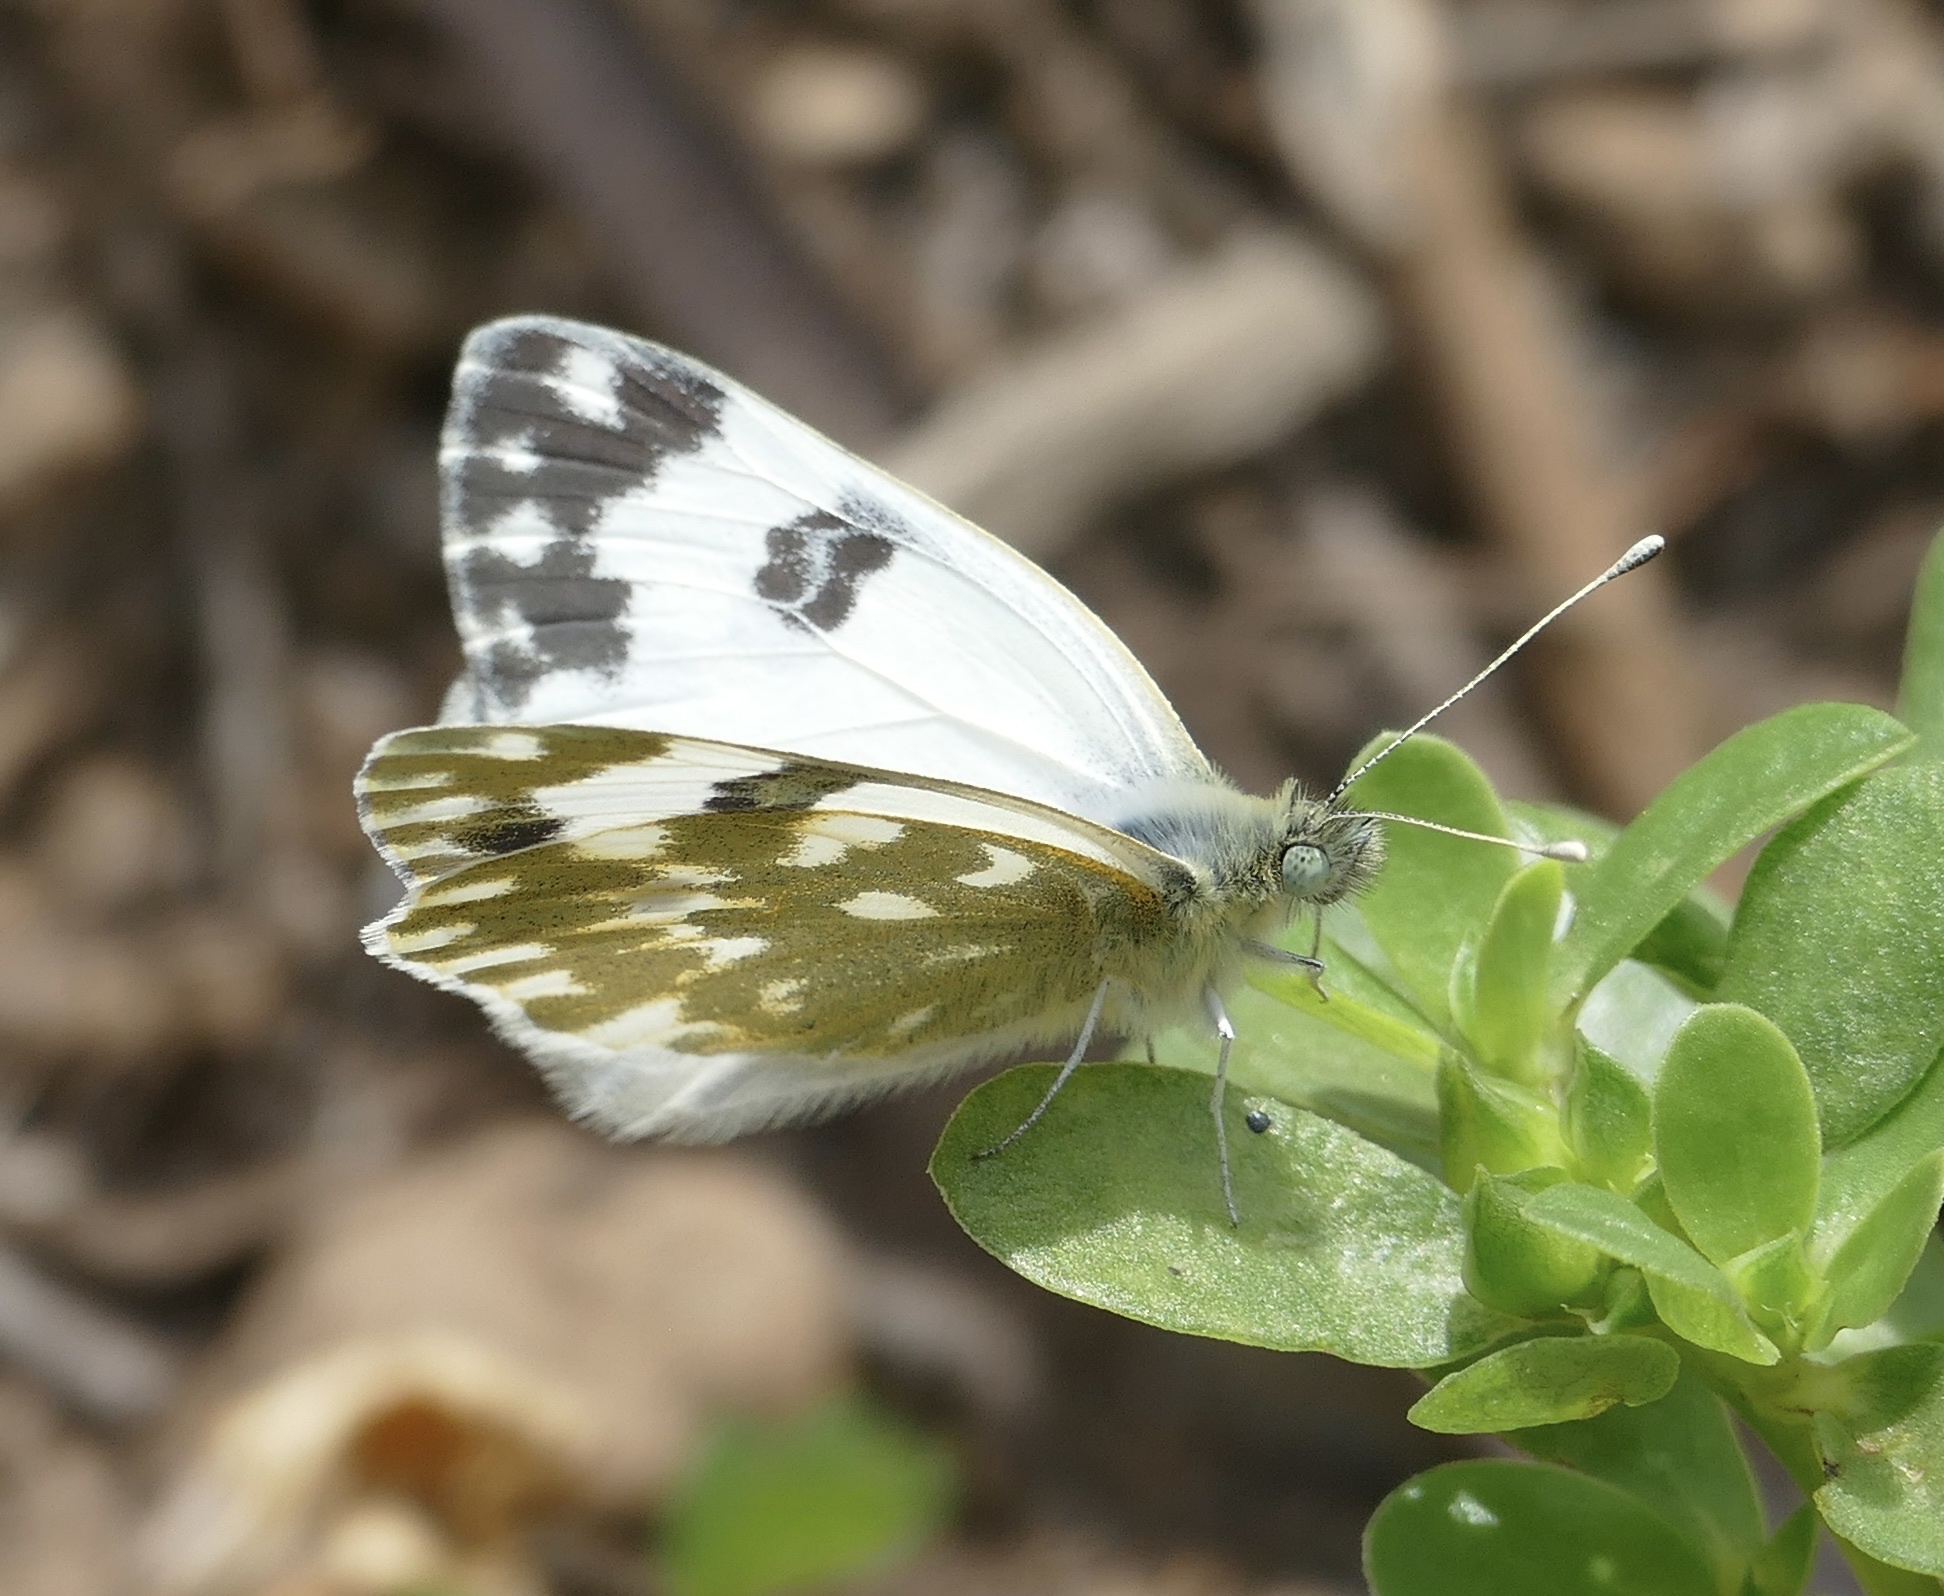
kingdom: Animalia
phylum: Arthropoda
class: Insecta
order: Lepidoptera
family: Pieridae
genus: Pontia
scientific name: Pontia daplidice
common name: Bath white
